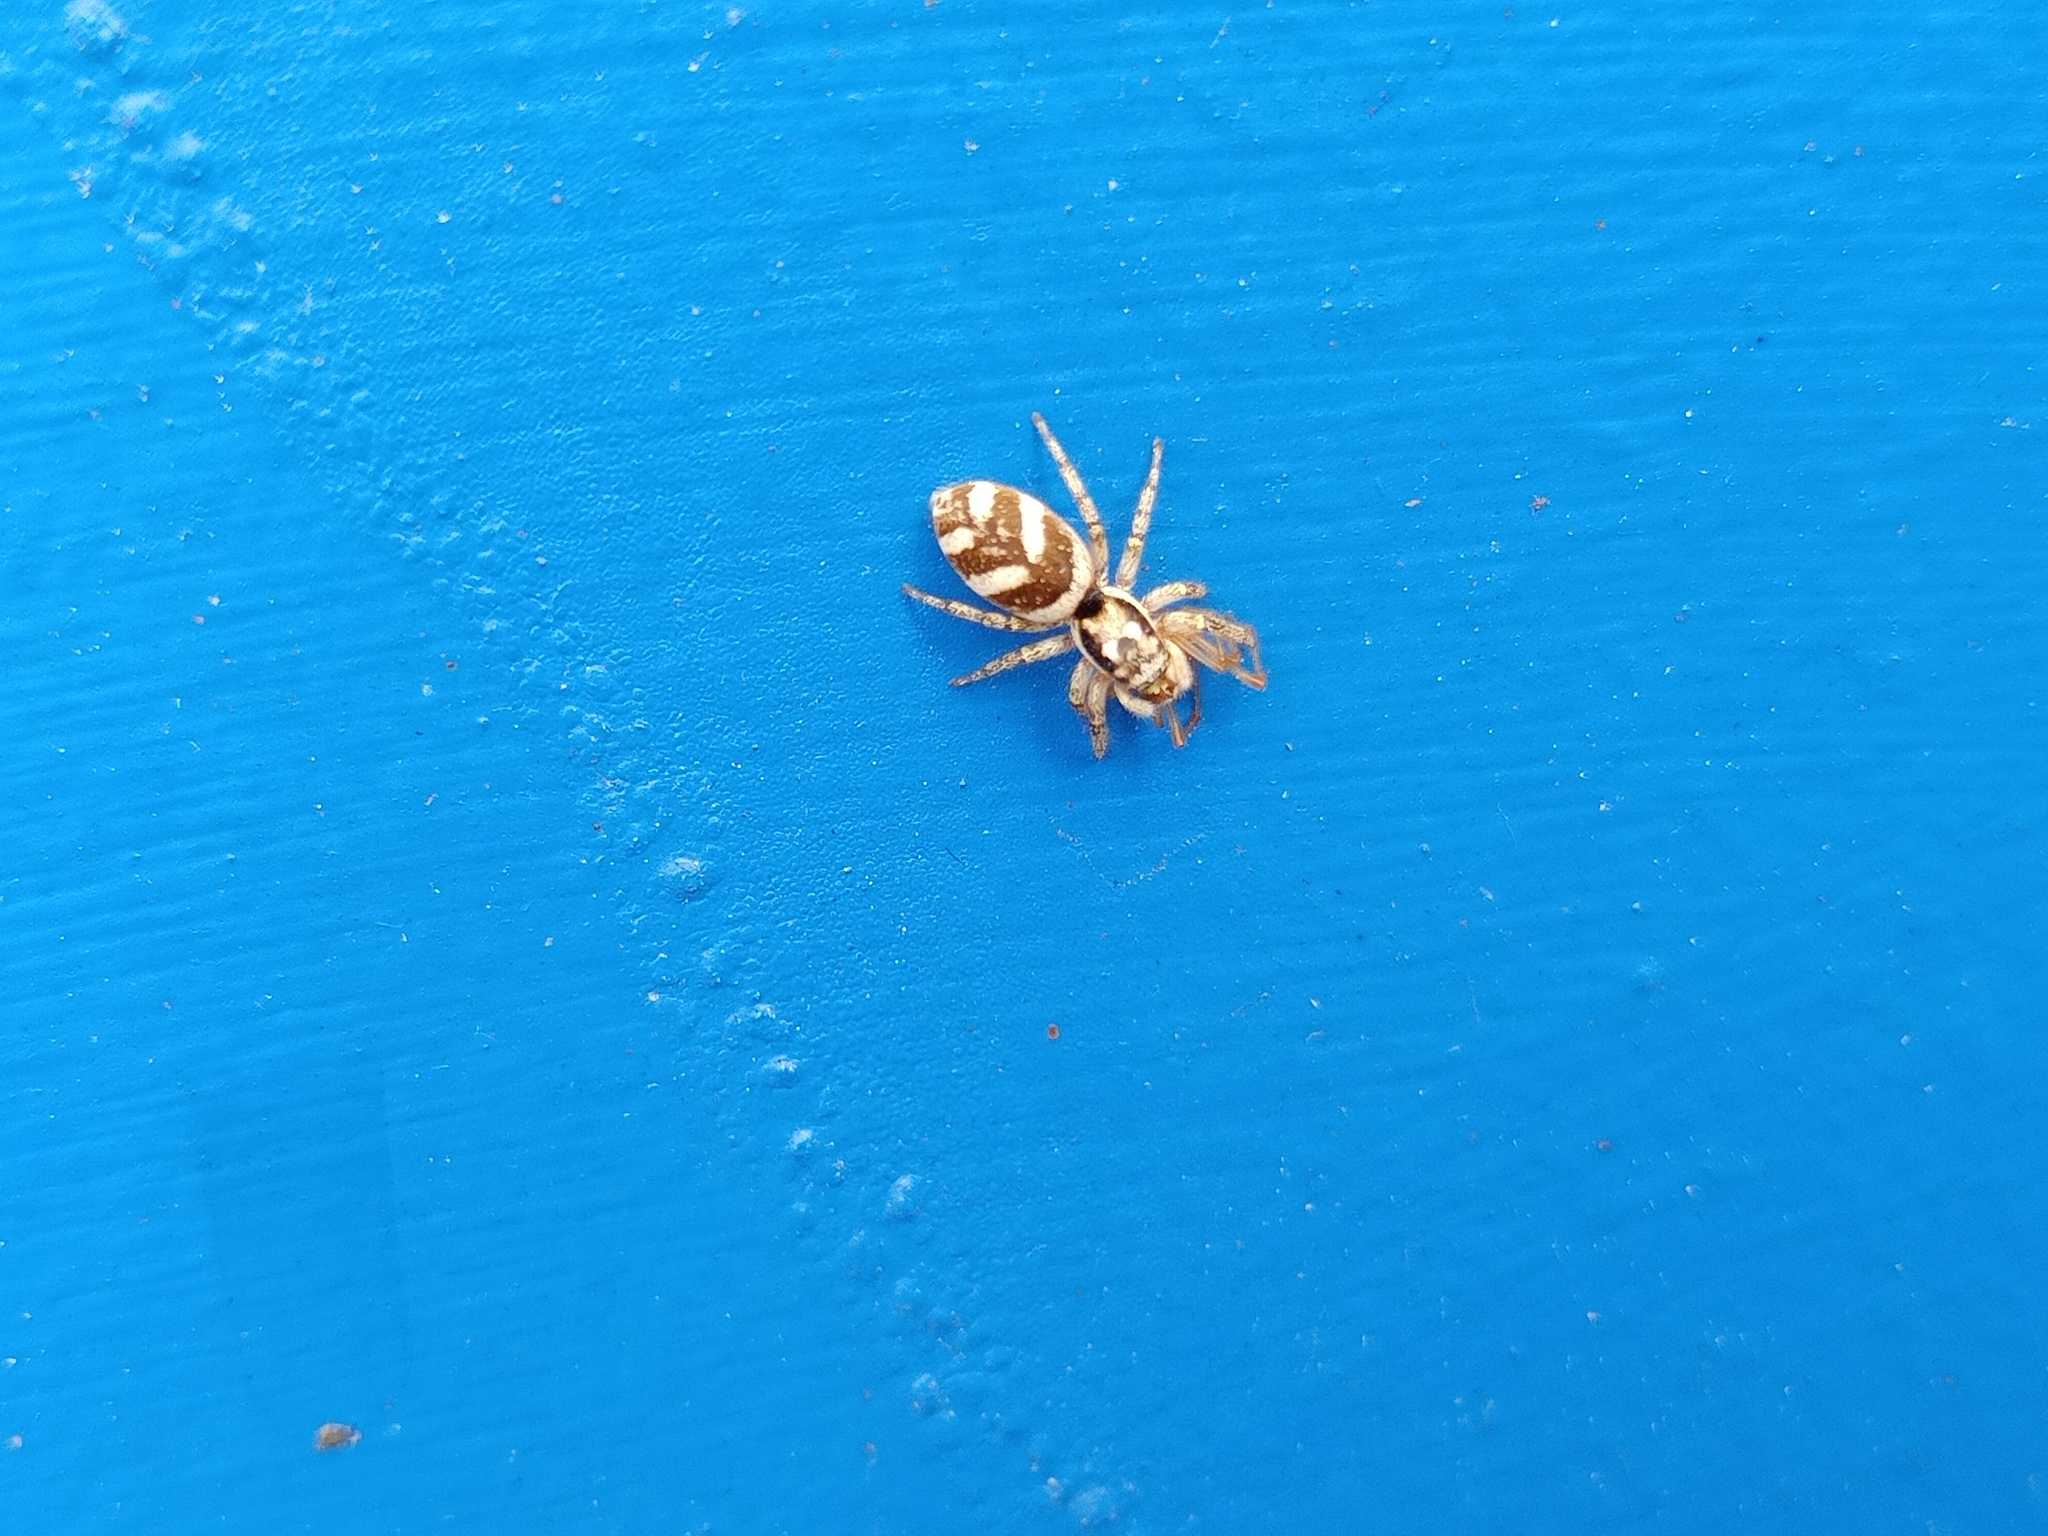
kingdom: Animalia
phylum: Arthropoda
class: Arachnida
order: Araneae
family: Salticidae
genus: Salticus
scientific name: Salticus scenicus
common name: Zebra jumper
